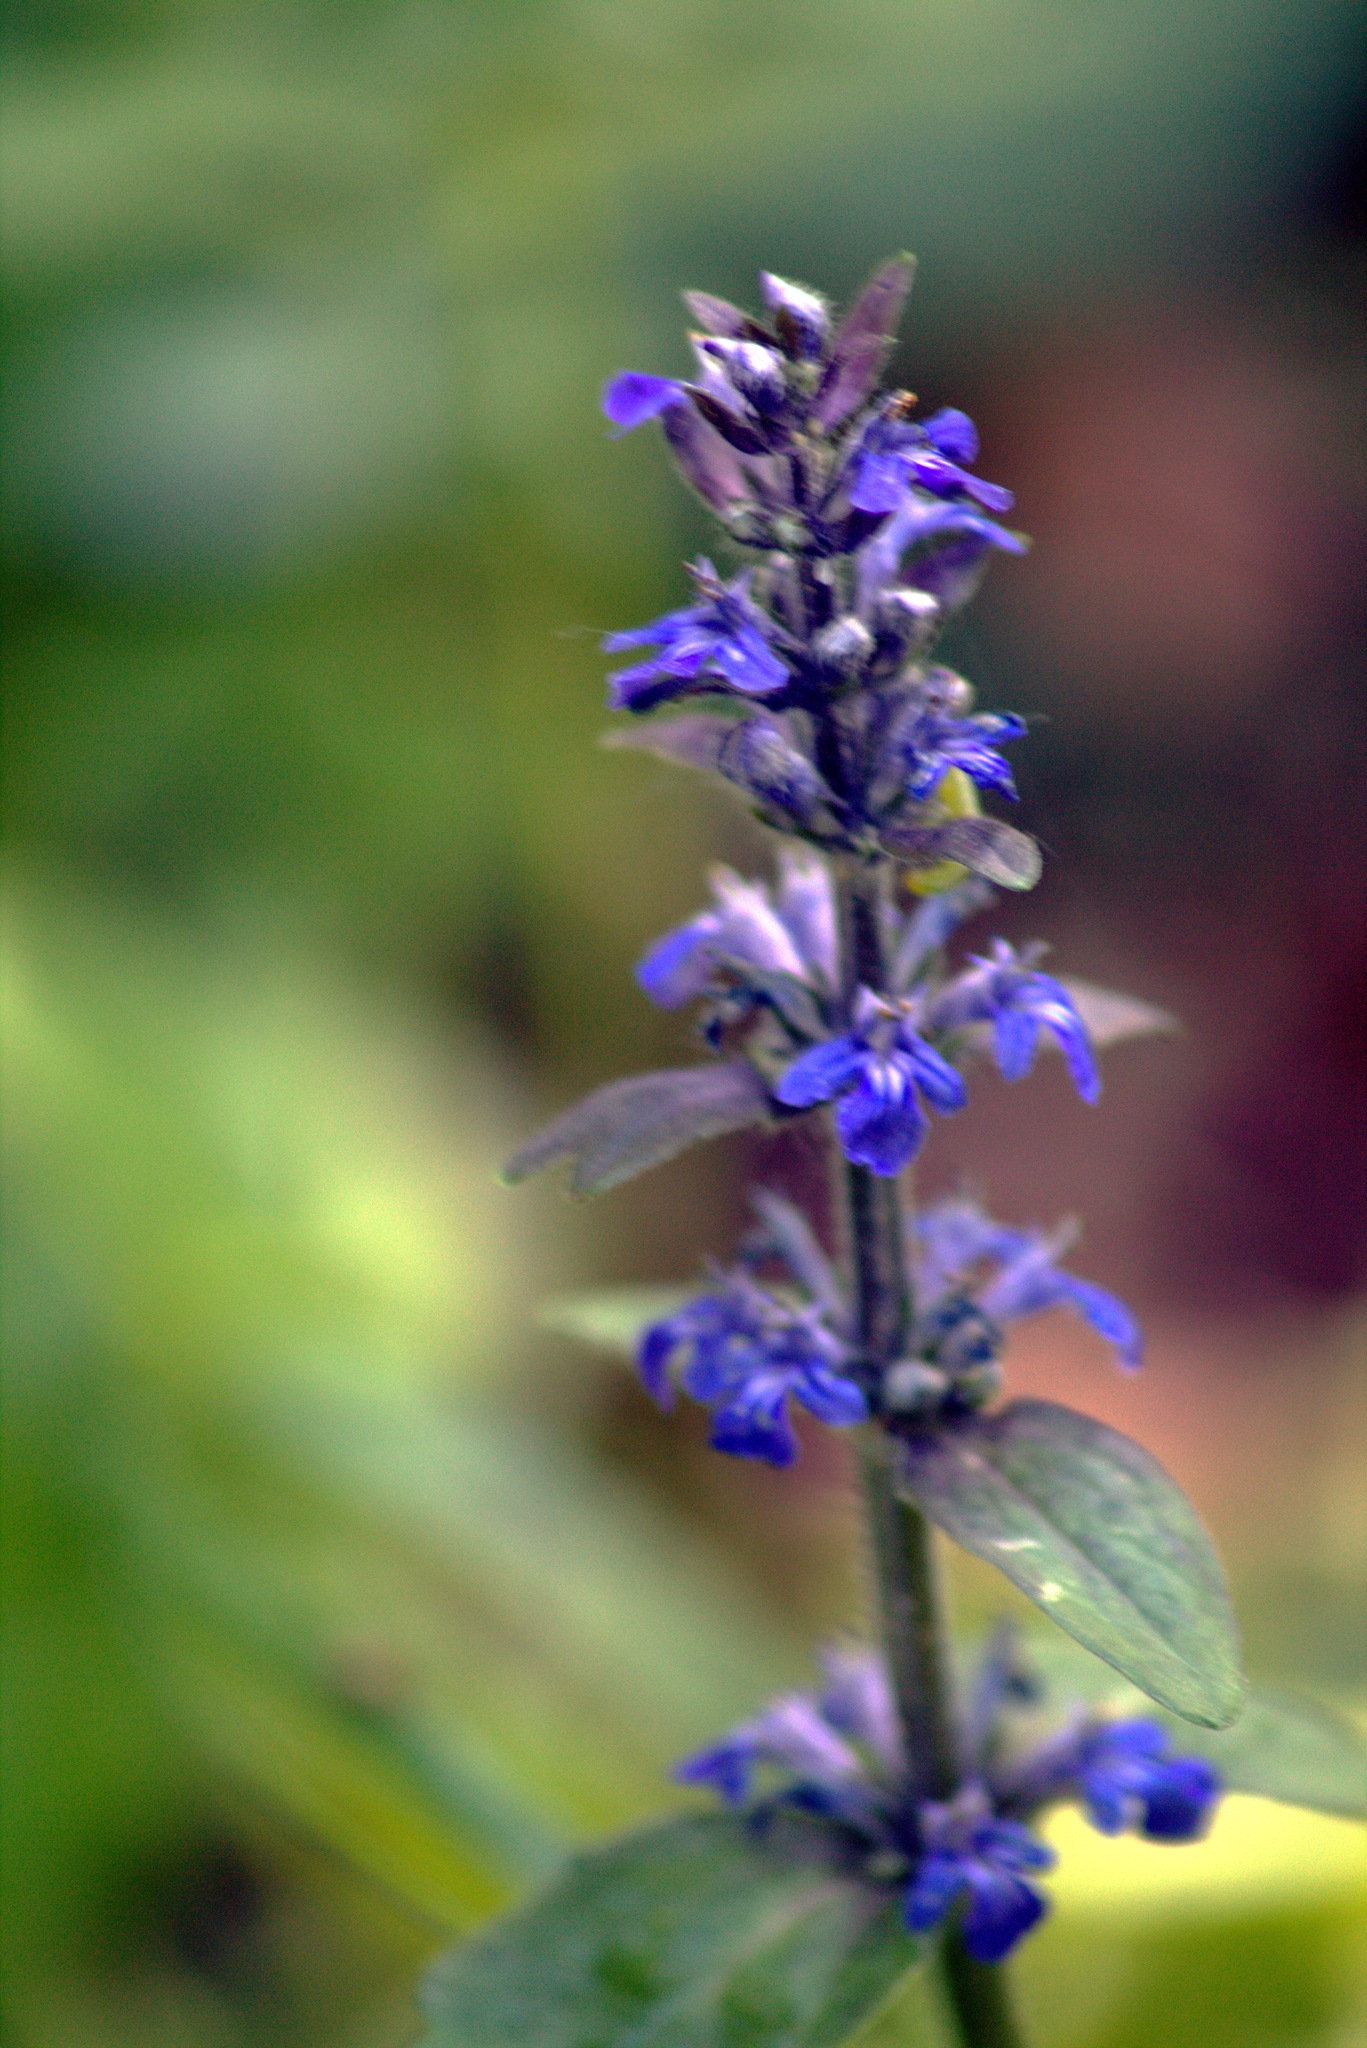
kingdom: Plantae
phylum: Tracheophyta
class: Magnoliopsida
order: Lamiales
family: Lamiaceae
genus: Ajuga
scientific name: Ajuga reptans
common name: Bugle
